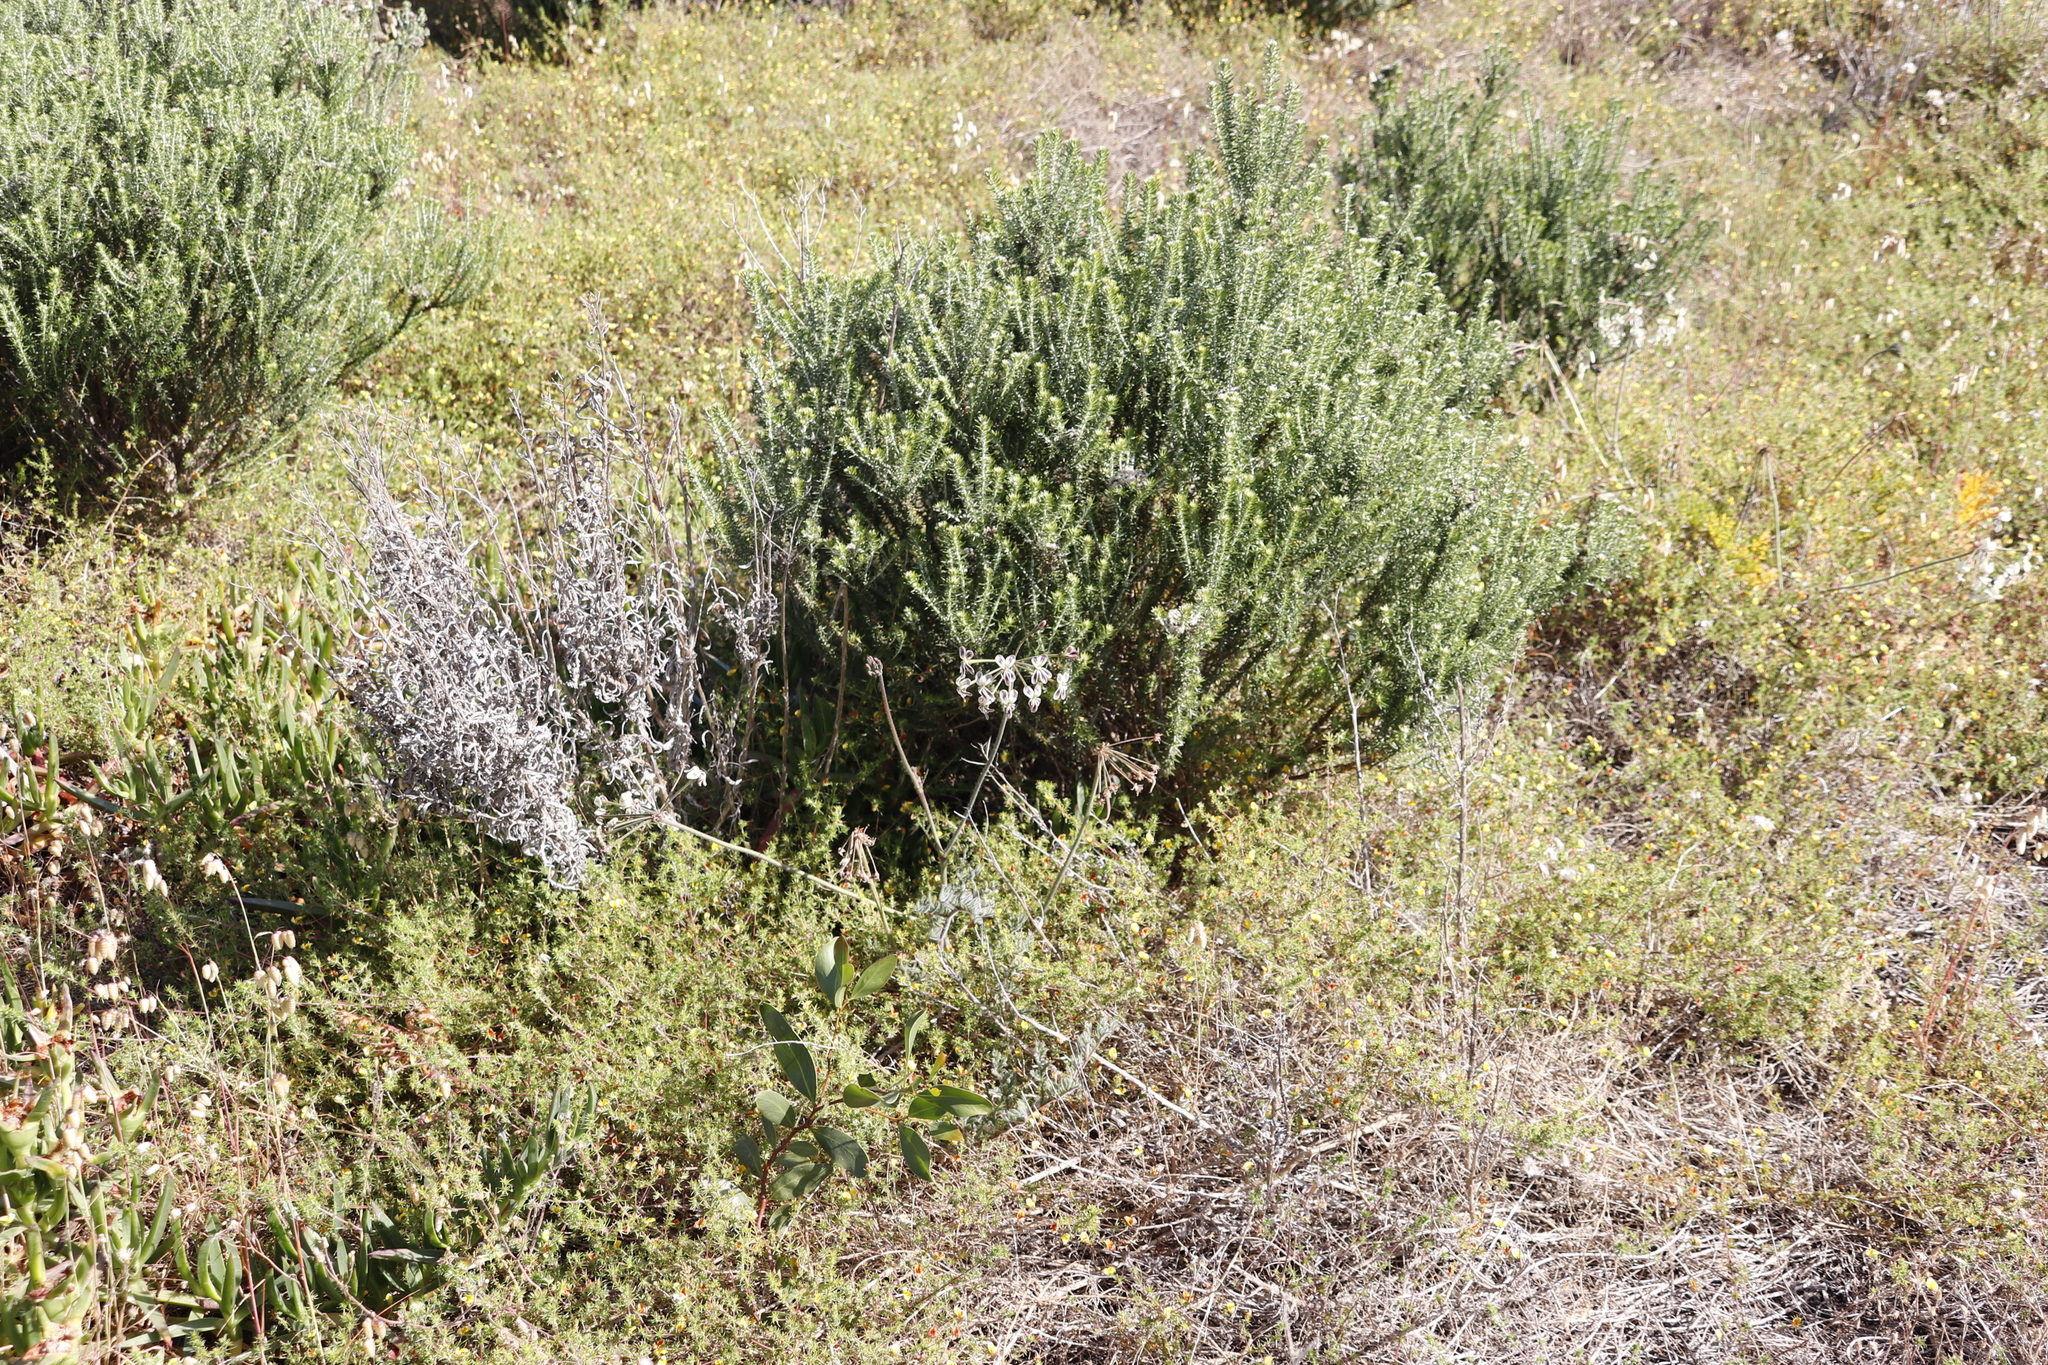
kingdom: Plantae
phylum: Tracheophyta
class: Magnoliopsida
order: Geraniales
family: Geraniaceae
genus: Pelargonium
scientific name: Pelargonium triste
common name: Night-scent pelargonium
